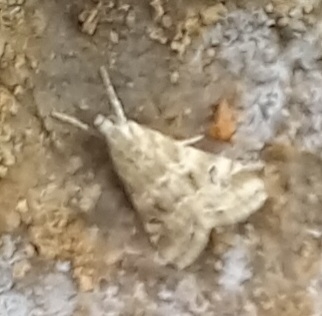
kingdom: Animalia
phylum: Arthropoda
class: Insecta
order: Lepidoptera
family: Crambidae
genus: Hellula
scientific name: Hellula undalis
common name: Cabbage webworm
